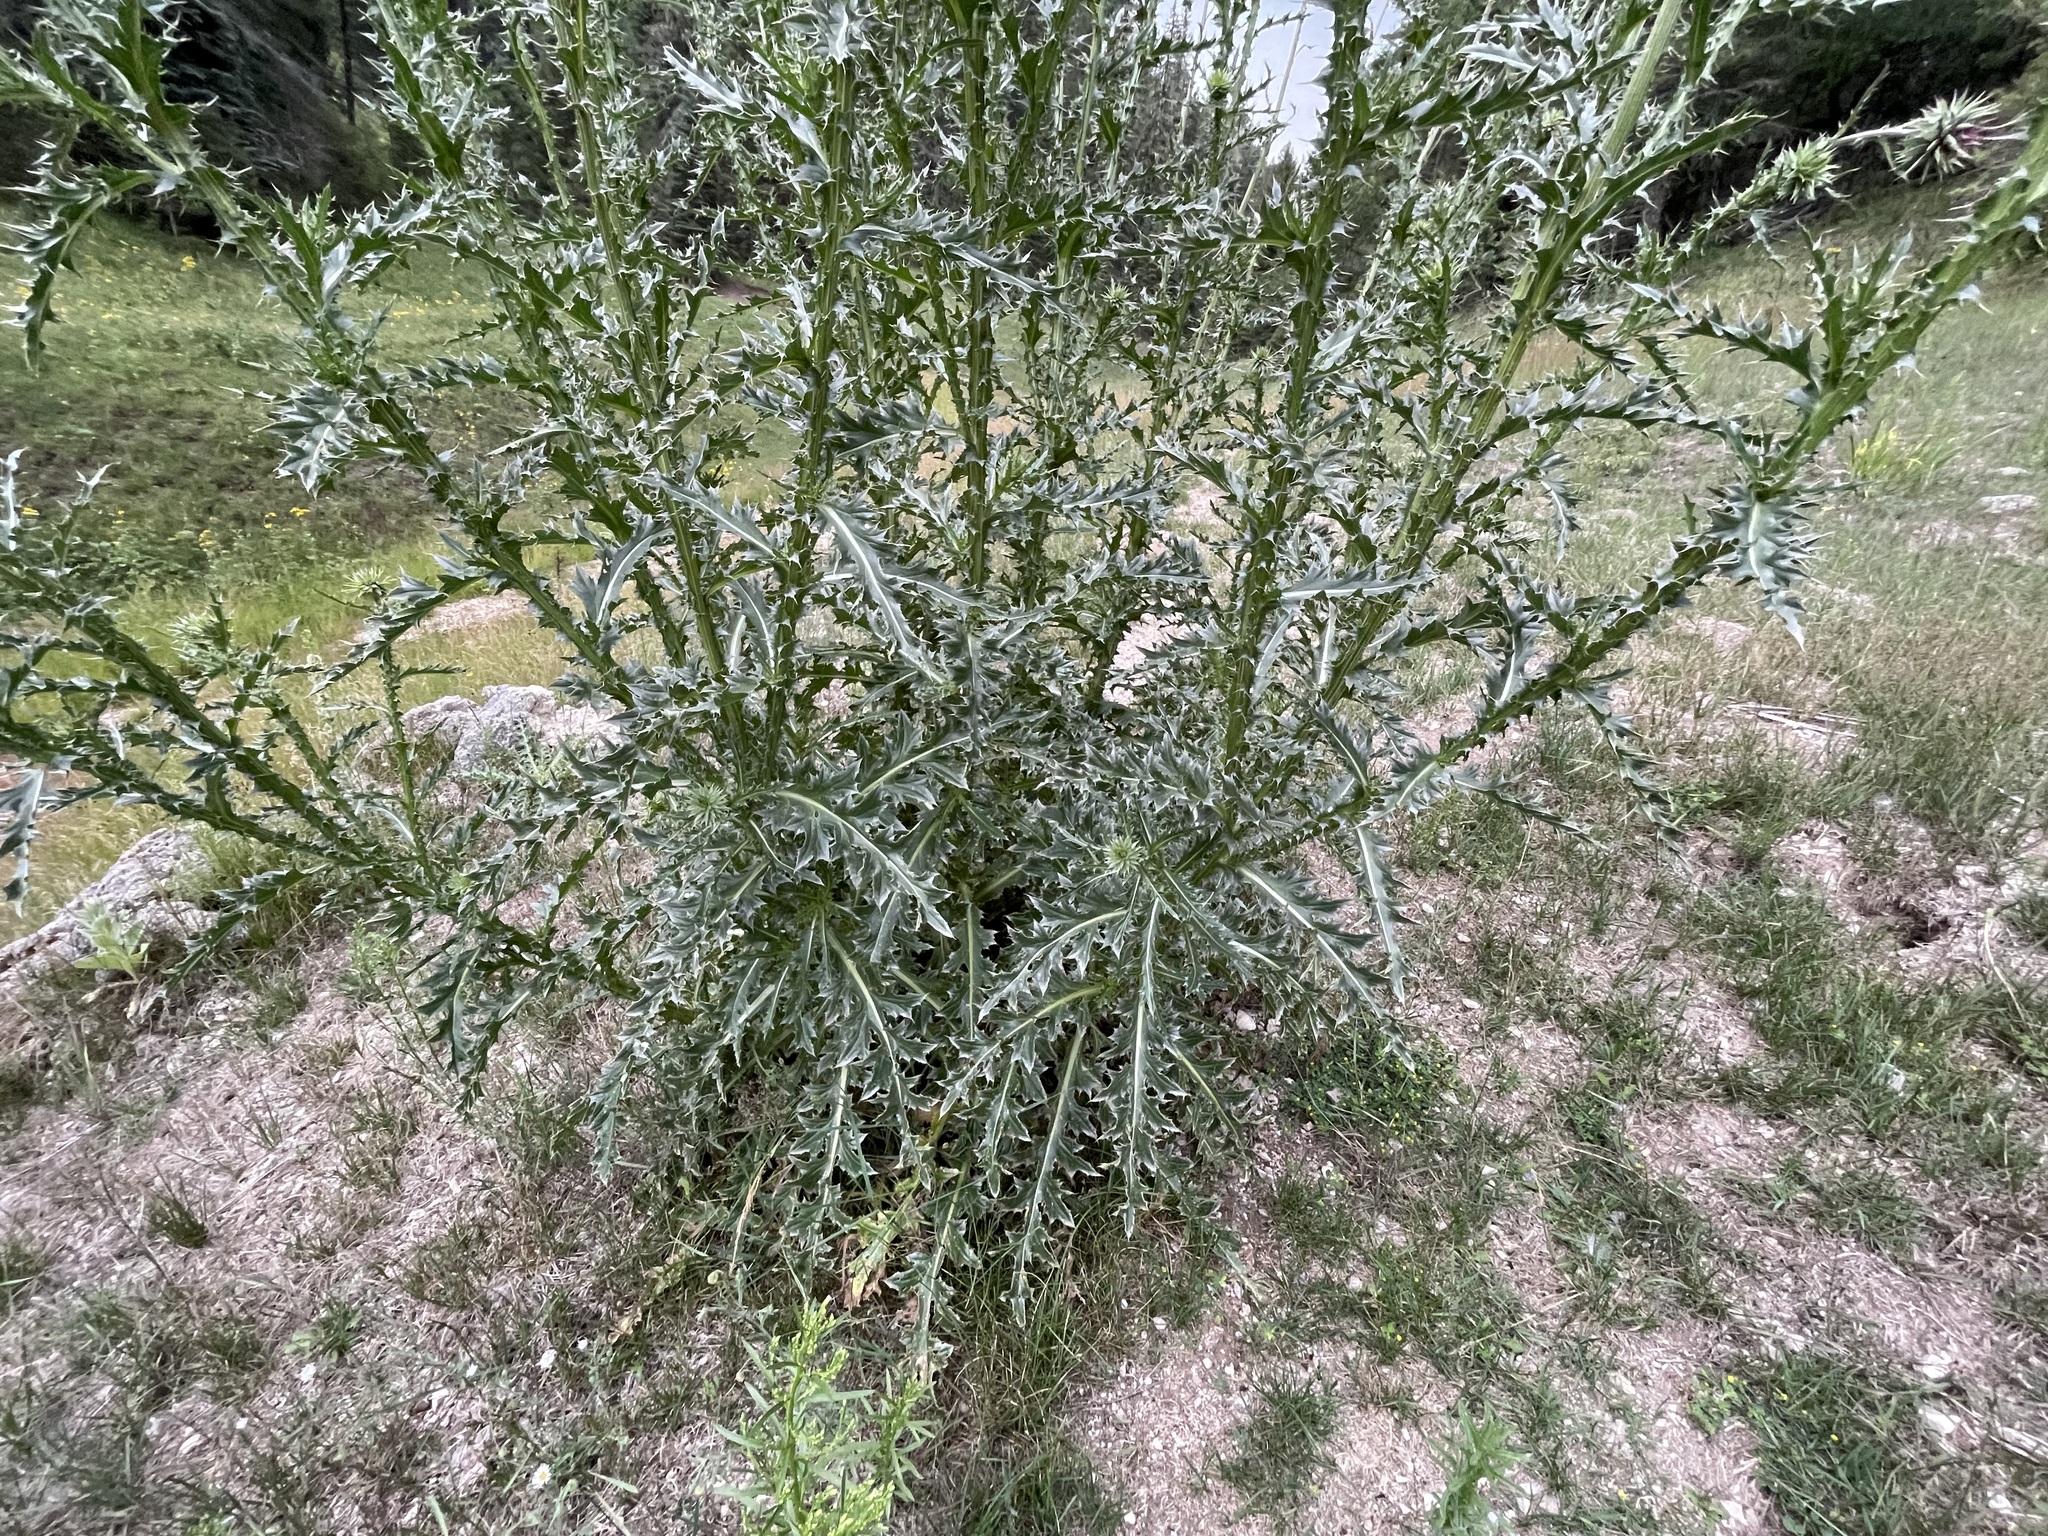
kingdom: Plantae
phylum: Tracheophyta
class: Magnoliopsida
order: Asterales
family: Asteraceae
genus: Carduus
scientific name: Carduus nutans
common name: Musk thistle
